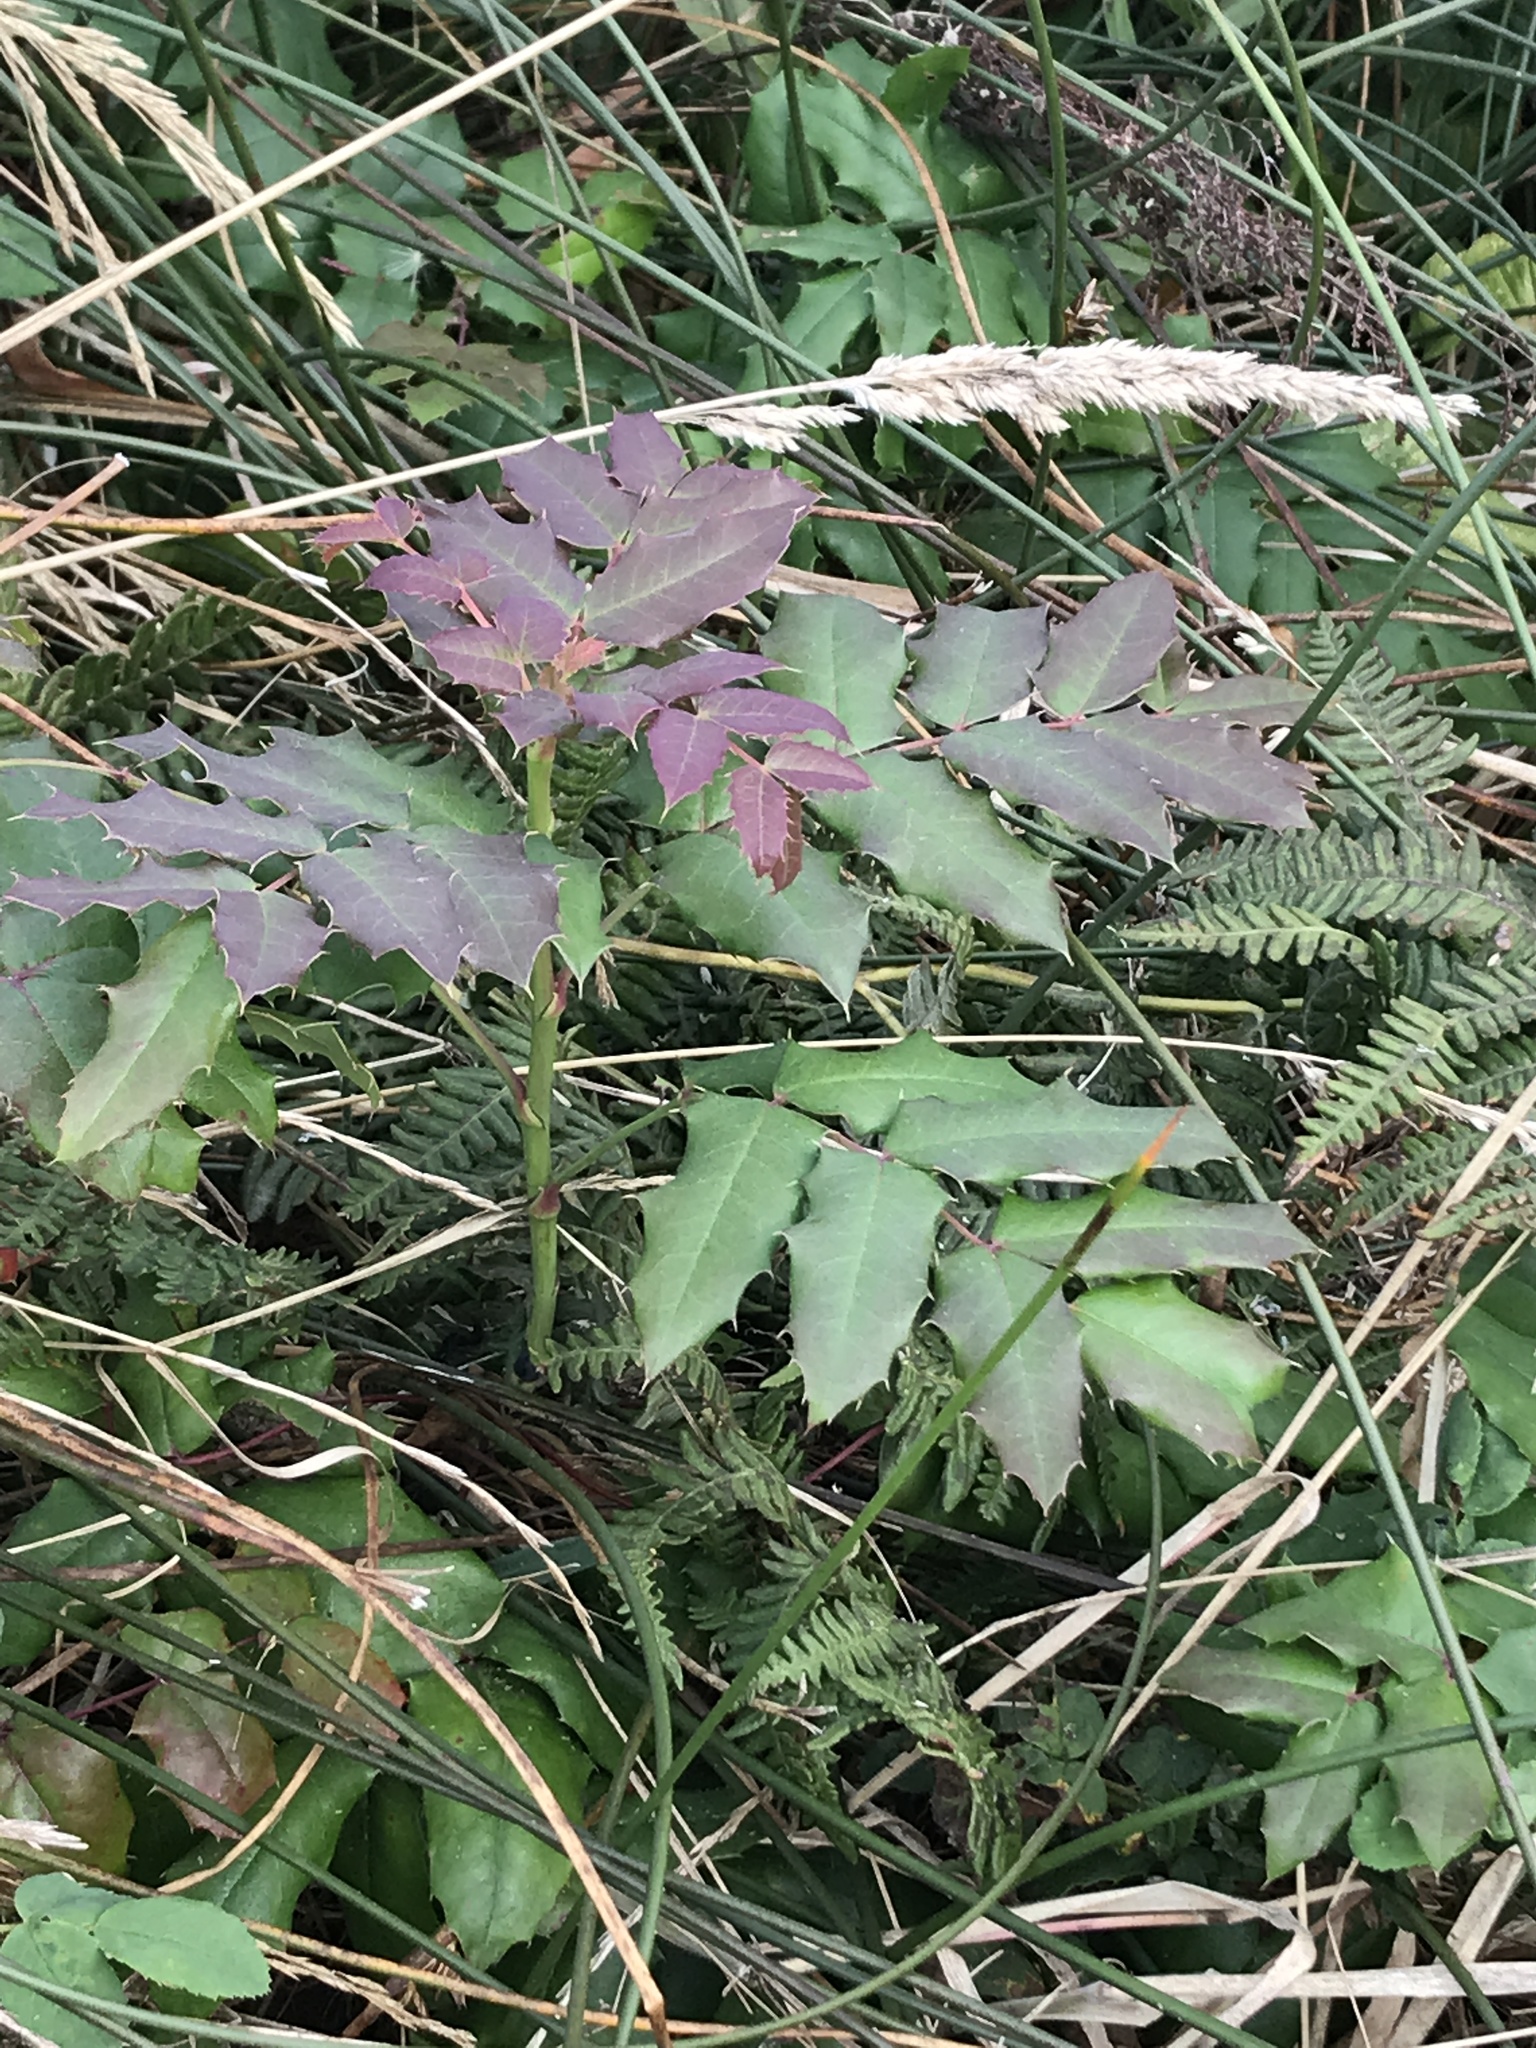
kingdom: Plantae
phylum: Tracheophyta
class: Magnoliopsida
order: Ranunculales
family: Berberidaceae
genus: Mahonia
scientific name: Mahonia aquifolium
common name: Oregon-grape
